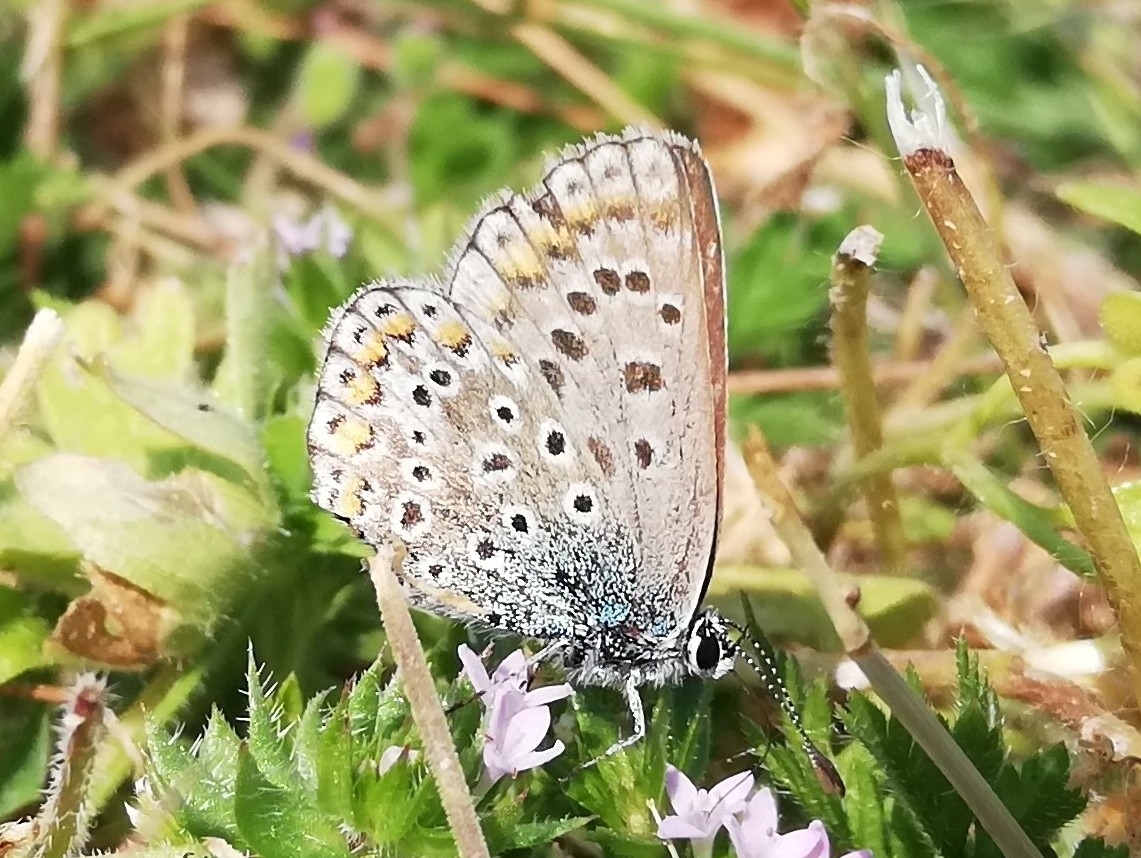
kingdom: Animalia
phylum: Arthropoda
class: Insecta
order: Lepidoptera
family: Lycaenidae
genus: Polyommatus
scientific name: Polyommatus icarus
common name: Common blue
